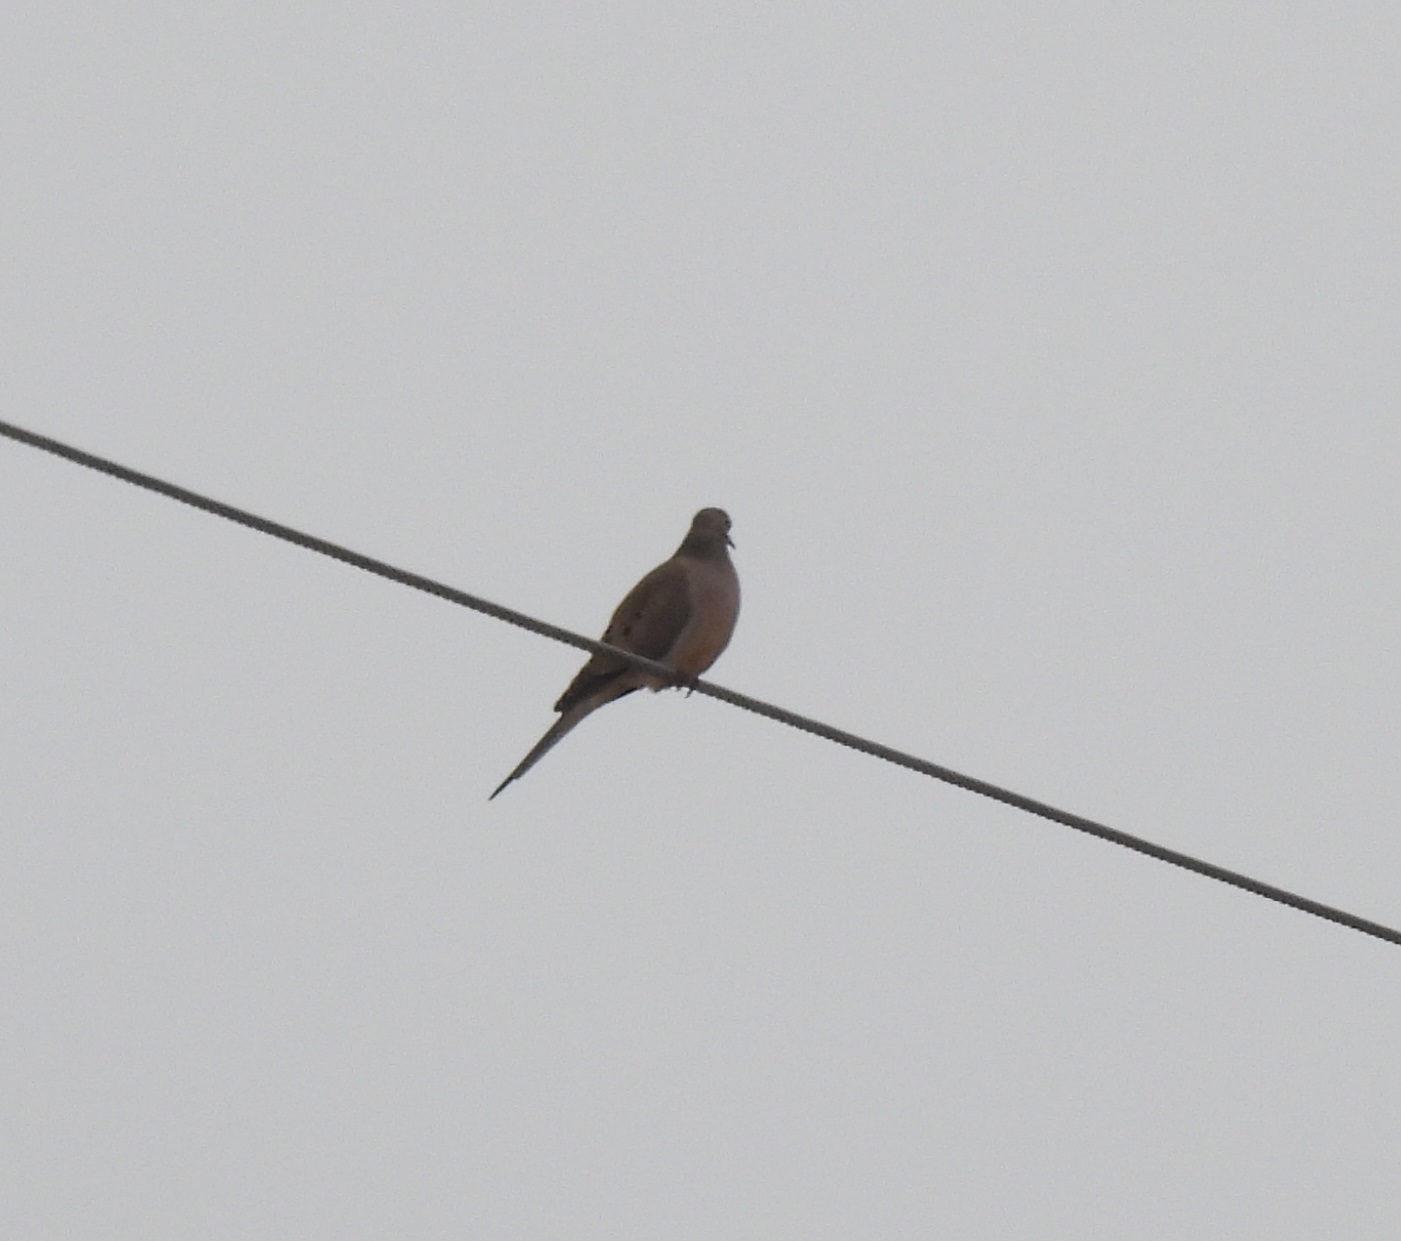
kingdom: Animalia
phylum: Chordata
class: Aves
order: Columbiformes
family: Columbidae
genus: Zenaida
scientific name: Zenaida macroura
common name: Mourning dove
